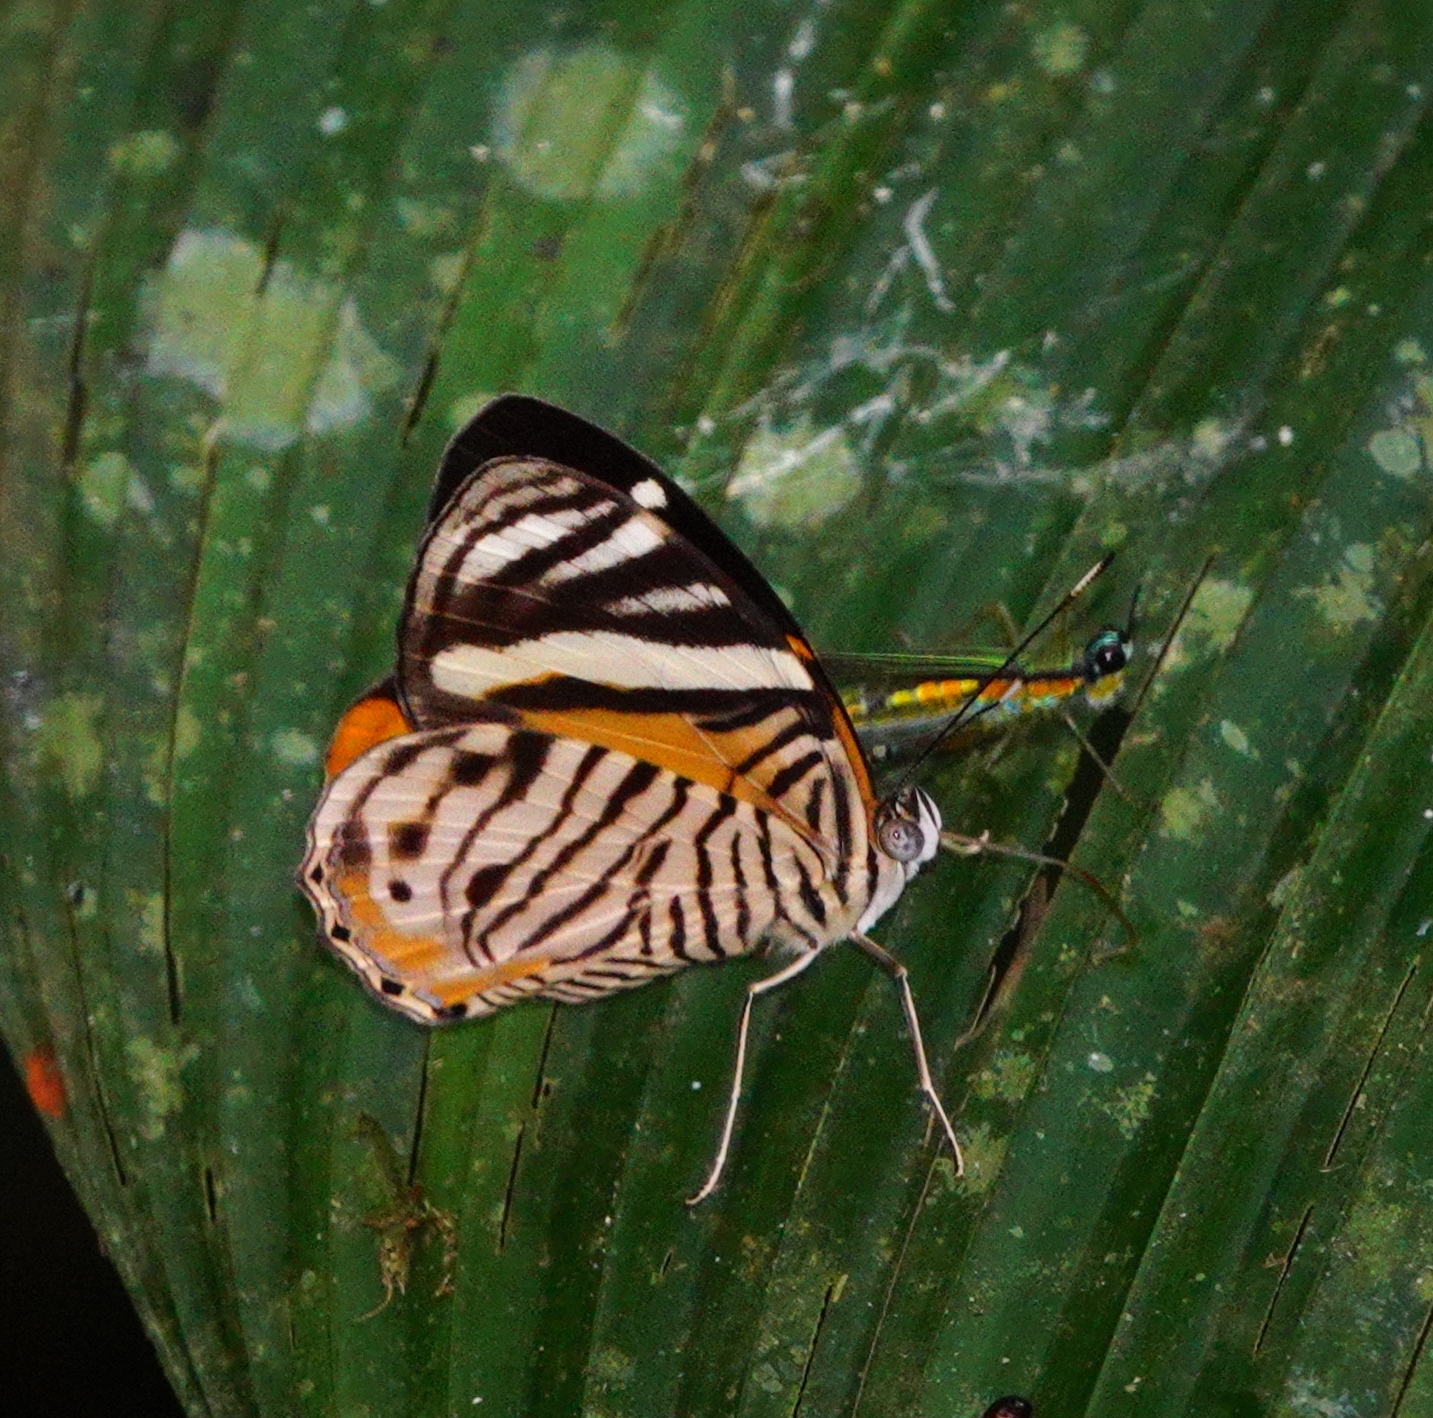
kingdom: Animalia
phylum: Arthropoda
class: Insecta
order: Lepidoptera
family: Nymphalidae
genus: Callizona
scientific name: Callizona acesta
